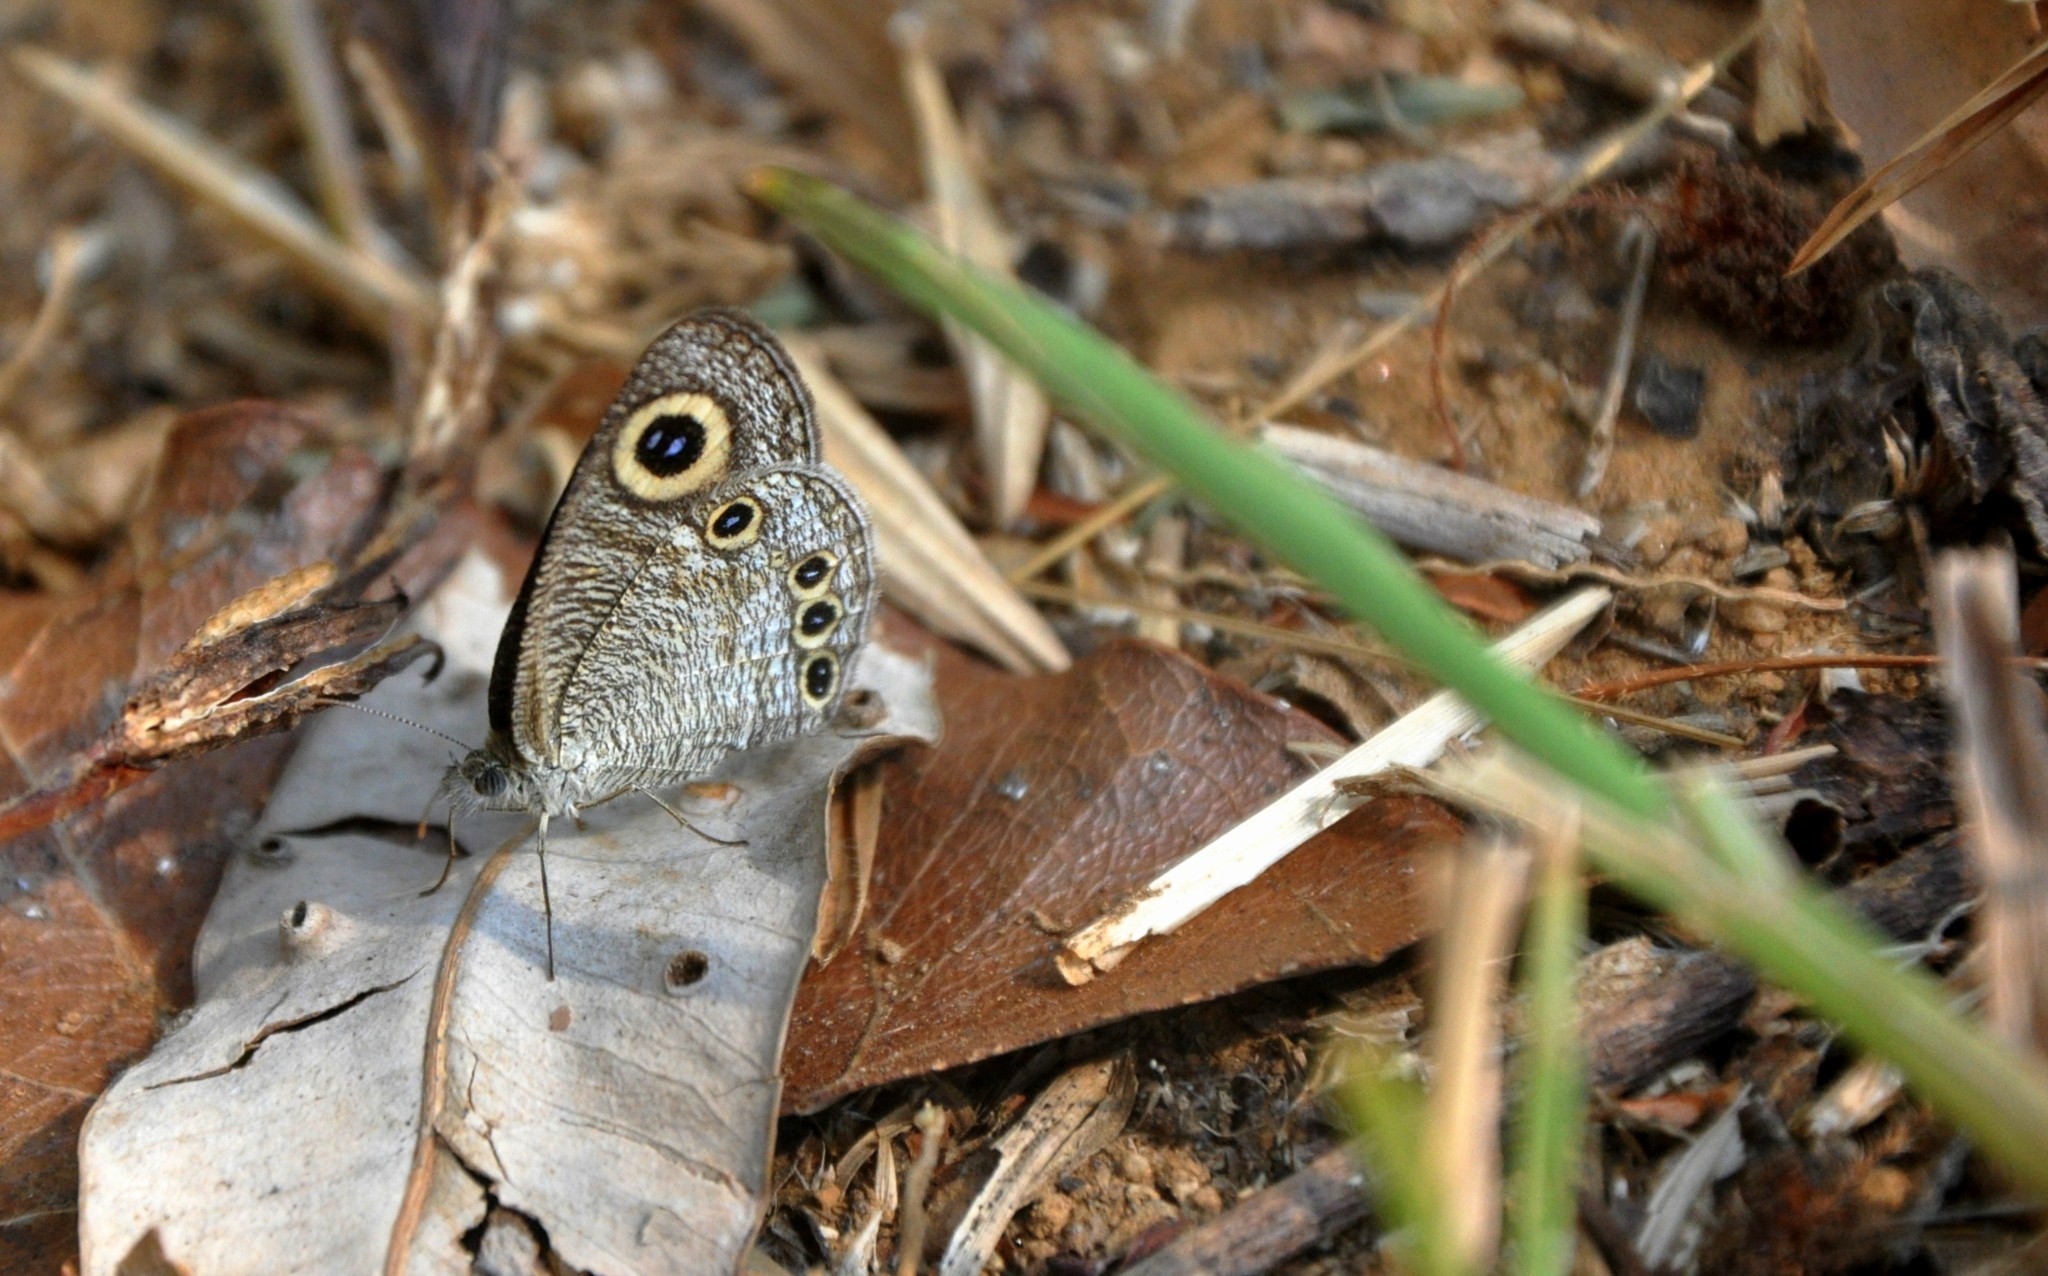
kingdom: Animalia
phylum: Arthropoda
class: Insecta
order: Lepidoptera
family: Nymphalidae
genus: Ypthima
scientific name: Ypthima huebneri
